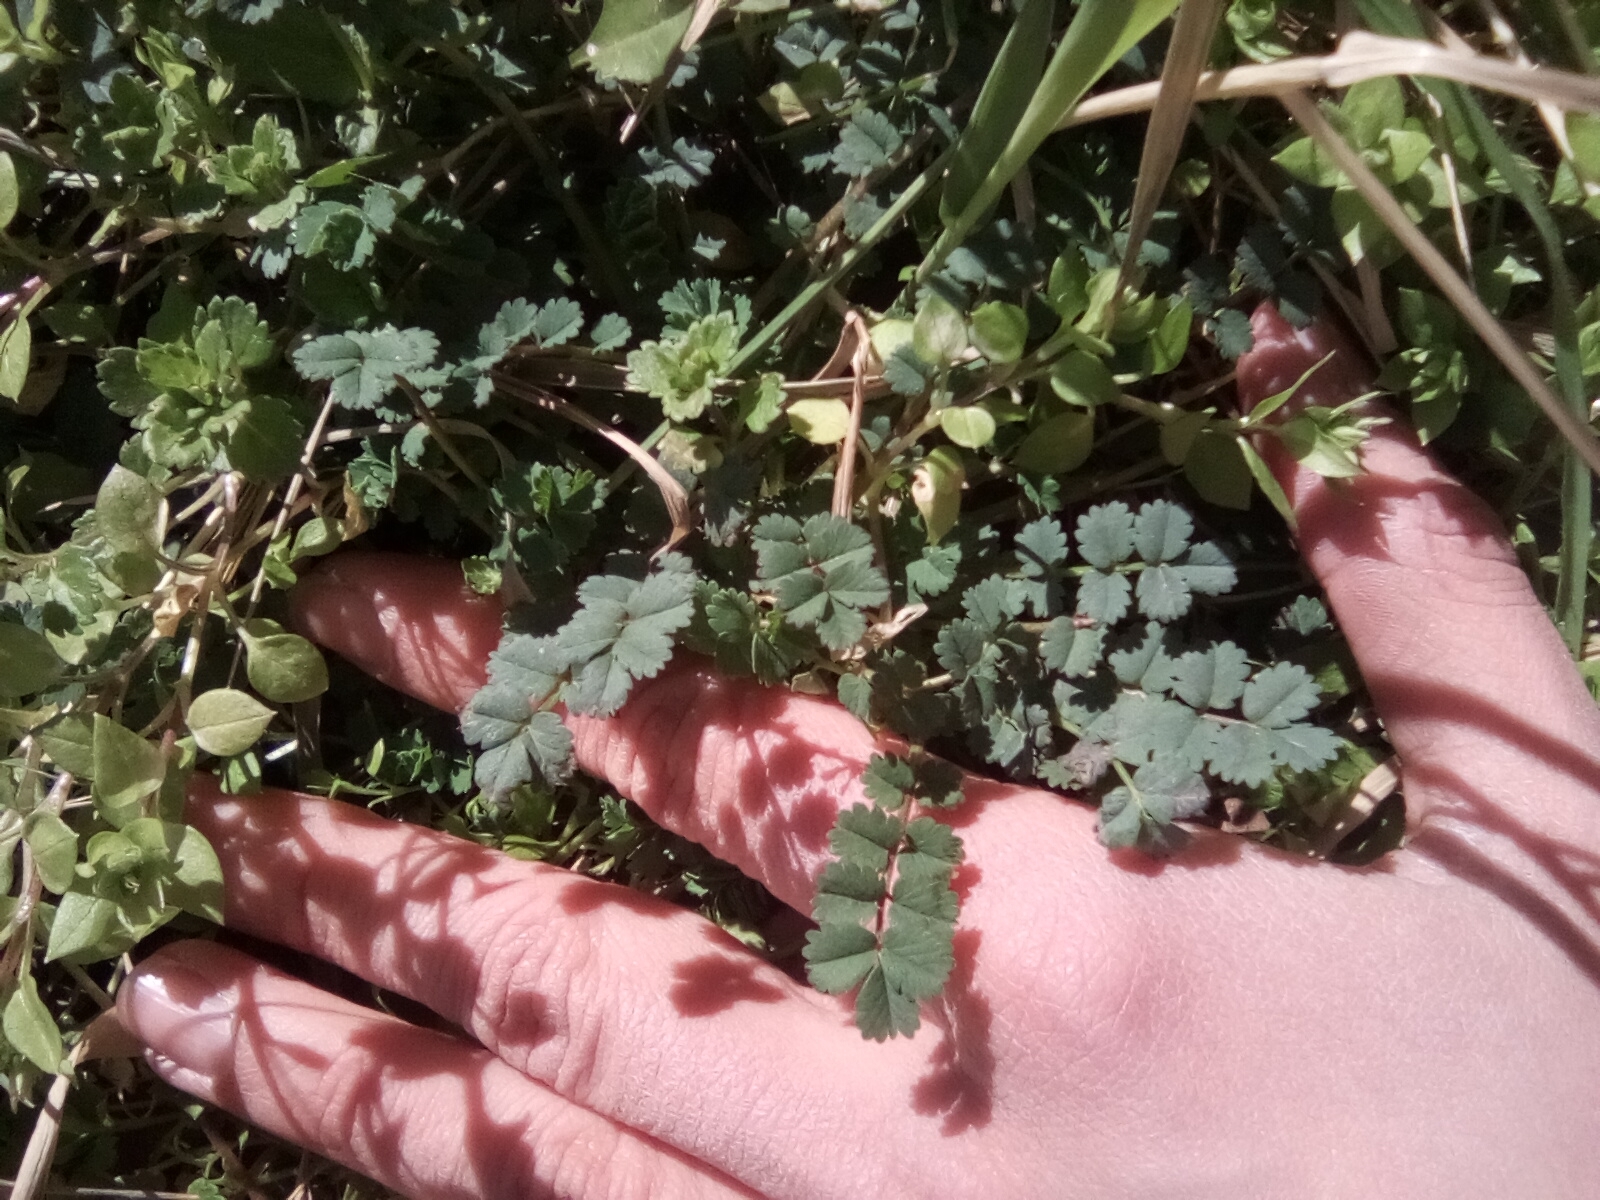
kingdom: Plantae
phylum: Tracheophyta
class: Magnoliopsida
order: Rosales
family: Rosaceae
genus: Poterium
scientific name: Poterium sanguisorba
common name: Salad burnet
